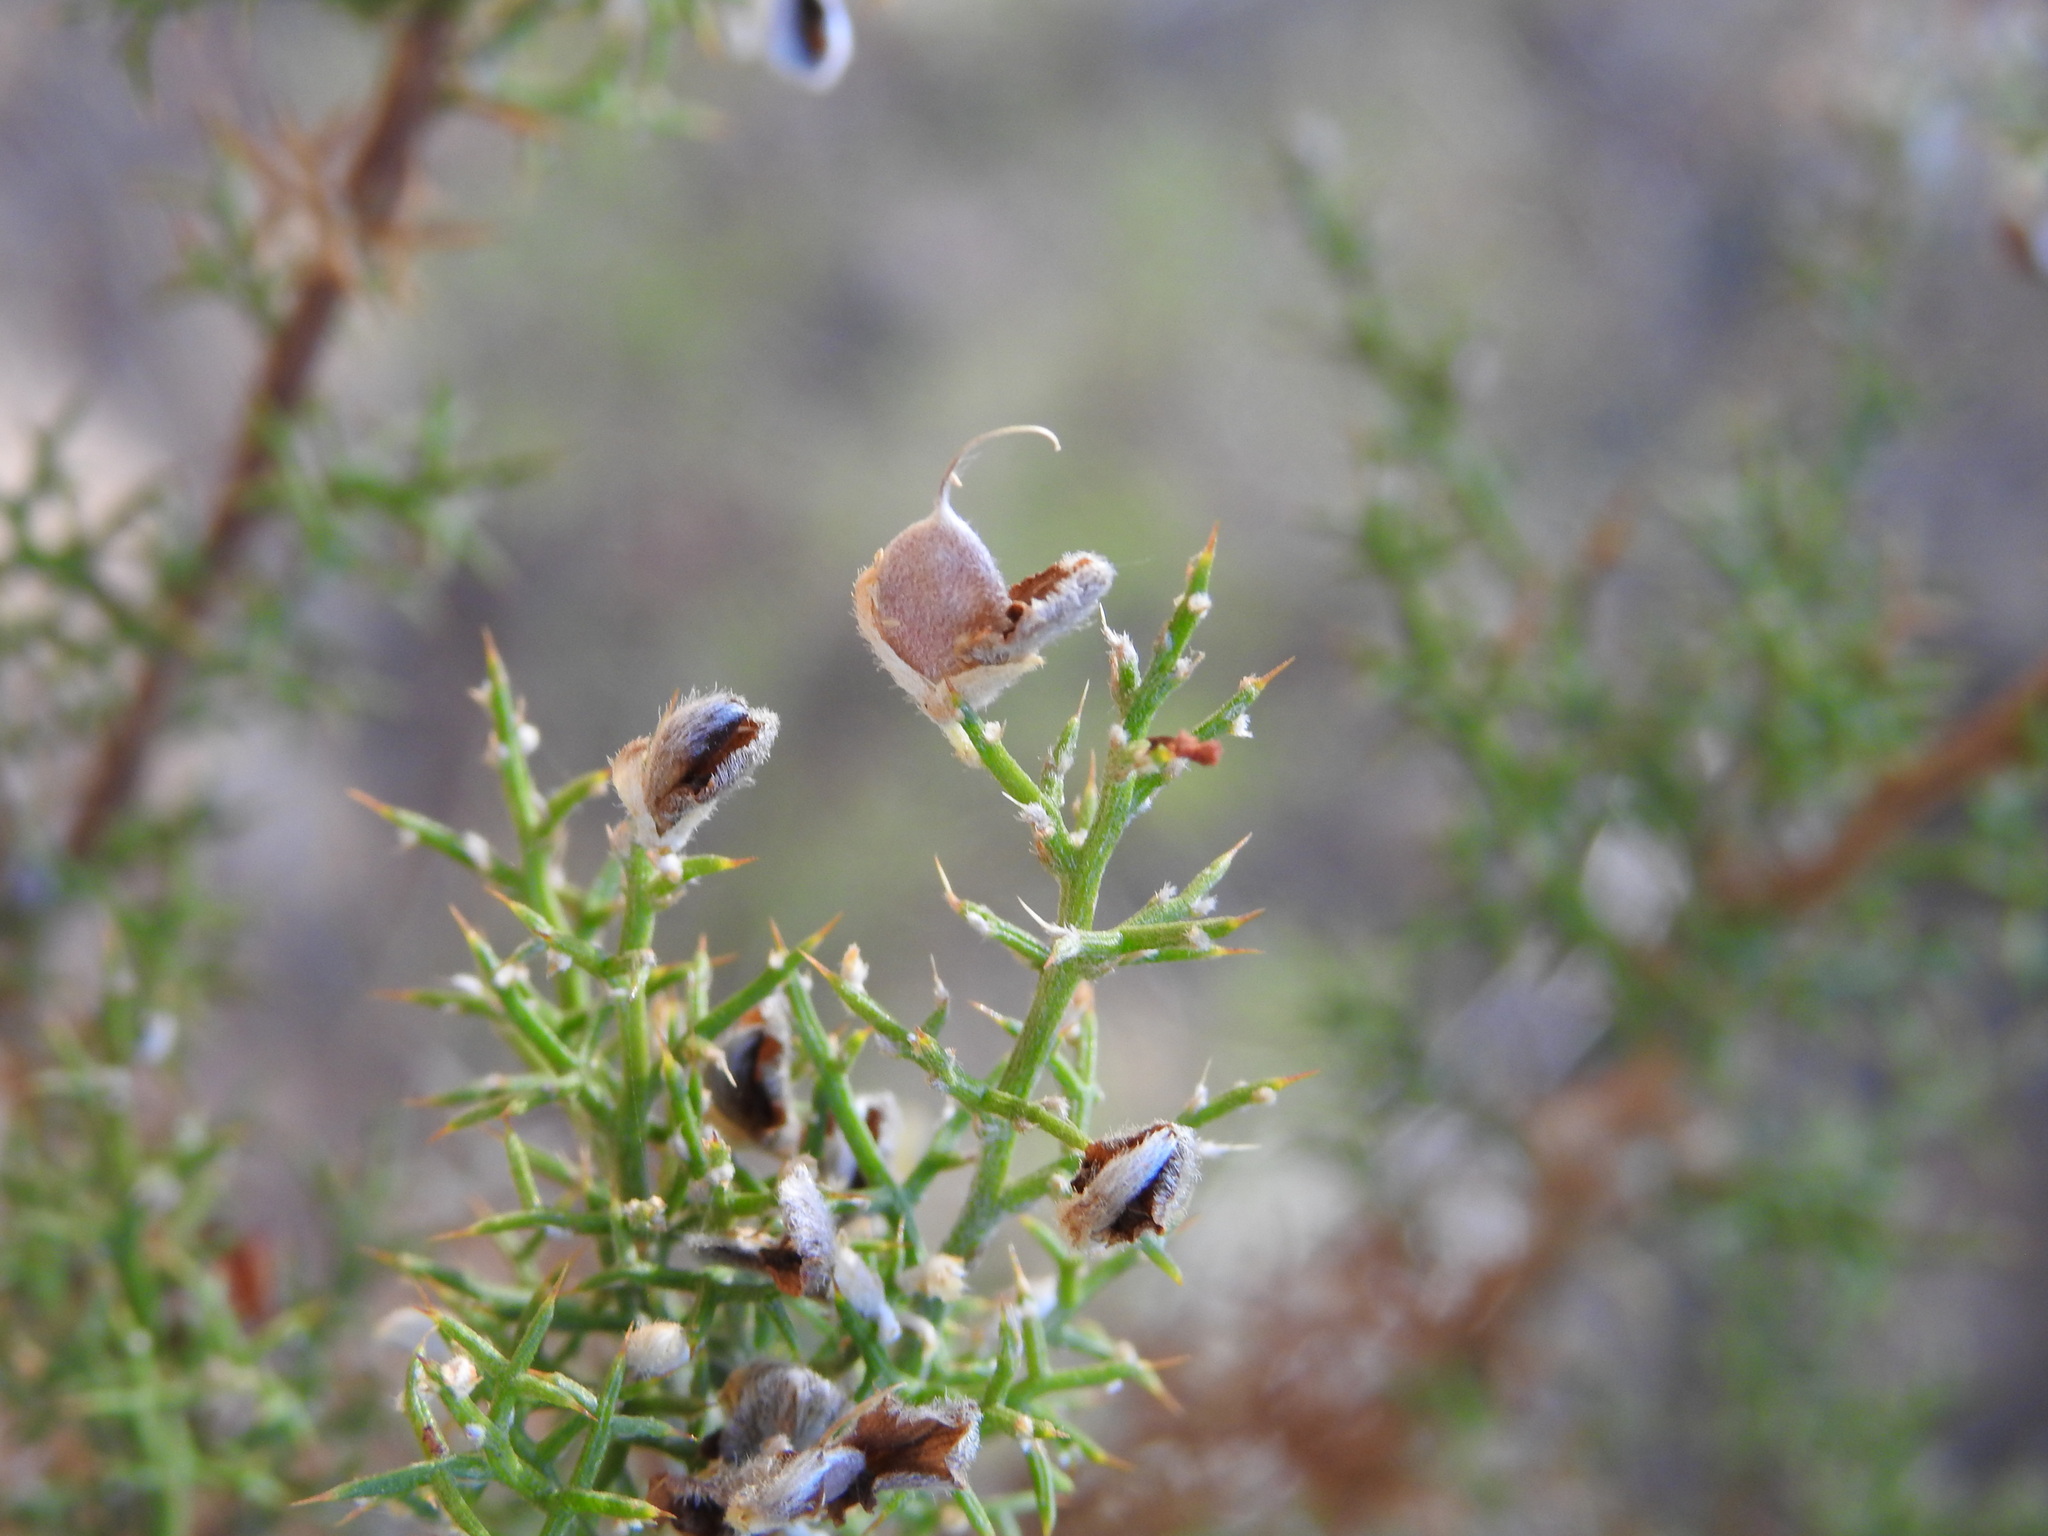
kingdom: Plantae
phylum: Tracheophyta
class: Magnoliopsida
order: Fabales
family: Fabaceae
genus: Stauracanthus
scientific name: Stauracanthus boivinii
